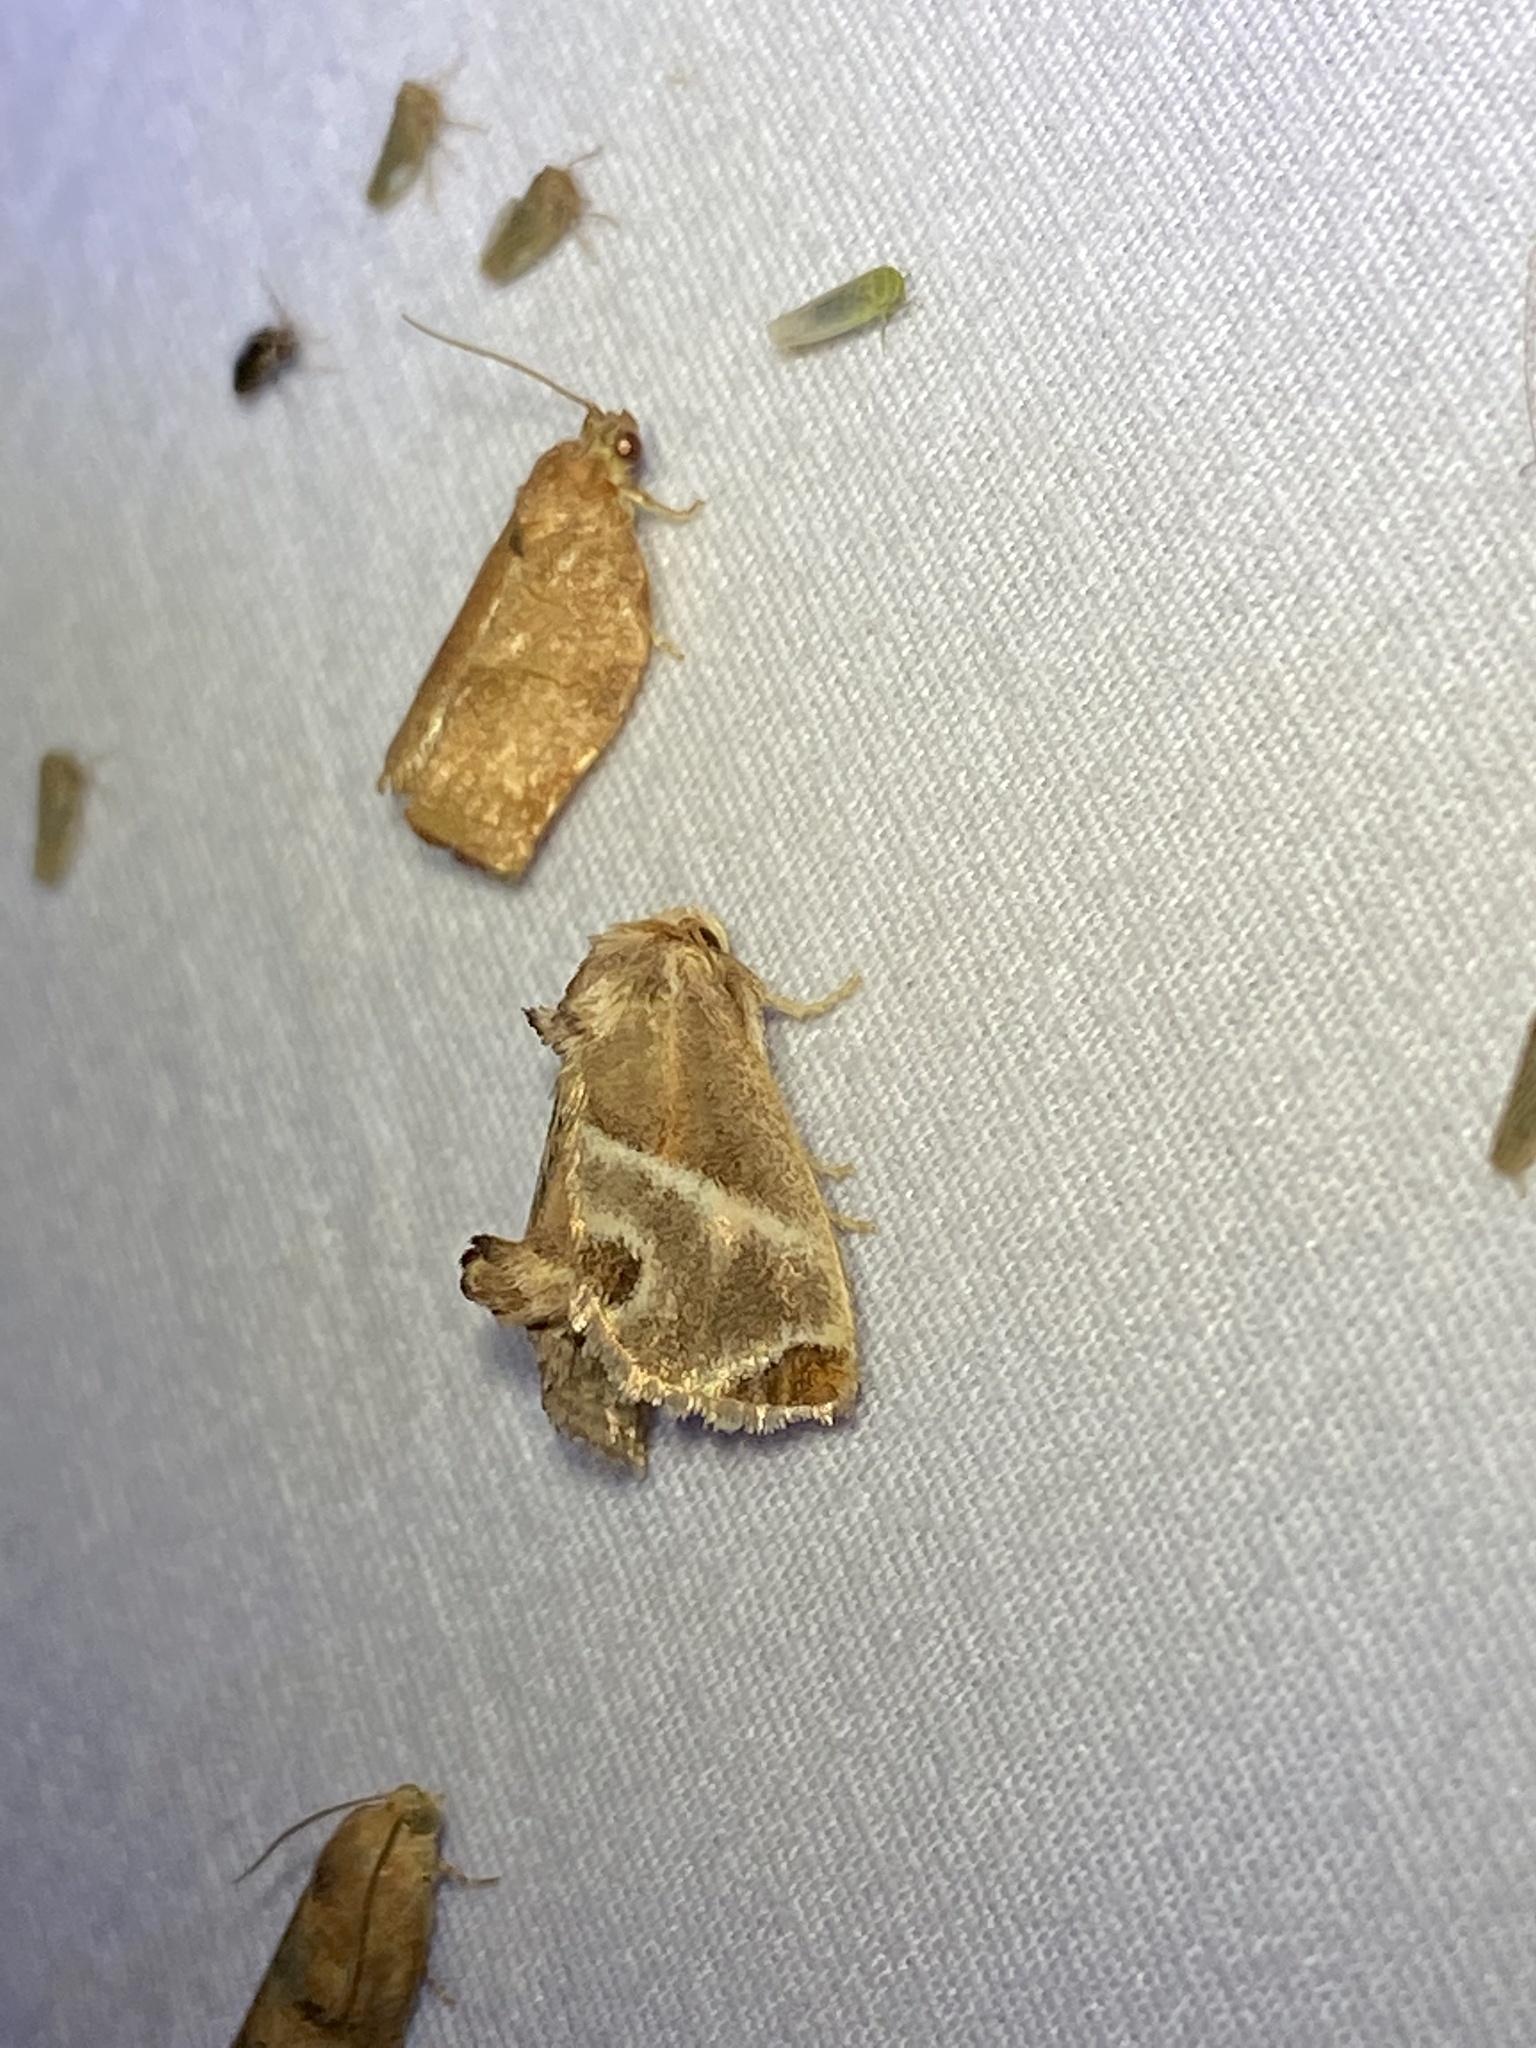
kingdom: Animalia
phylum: Arthropoda
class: Insecta
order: Lepidoptera
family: Limacodidae
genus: Apoda
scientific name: Apoda biguttata
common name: Shagreened slug moth
